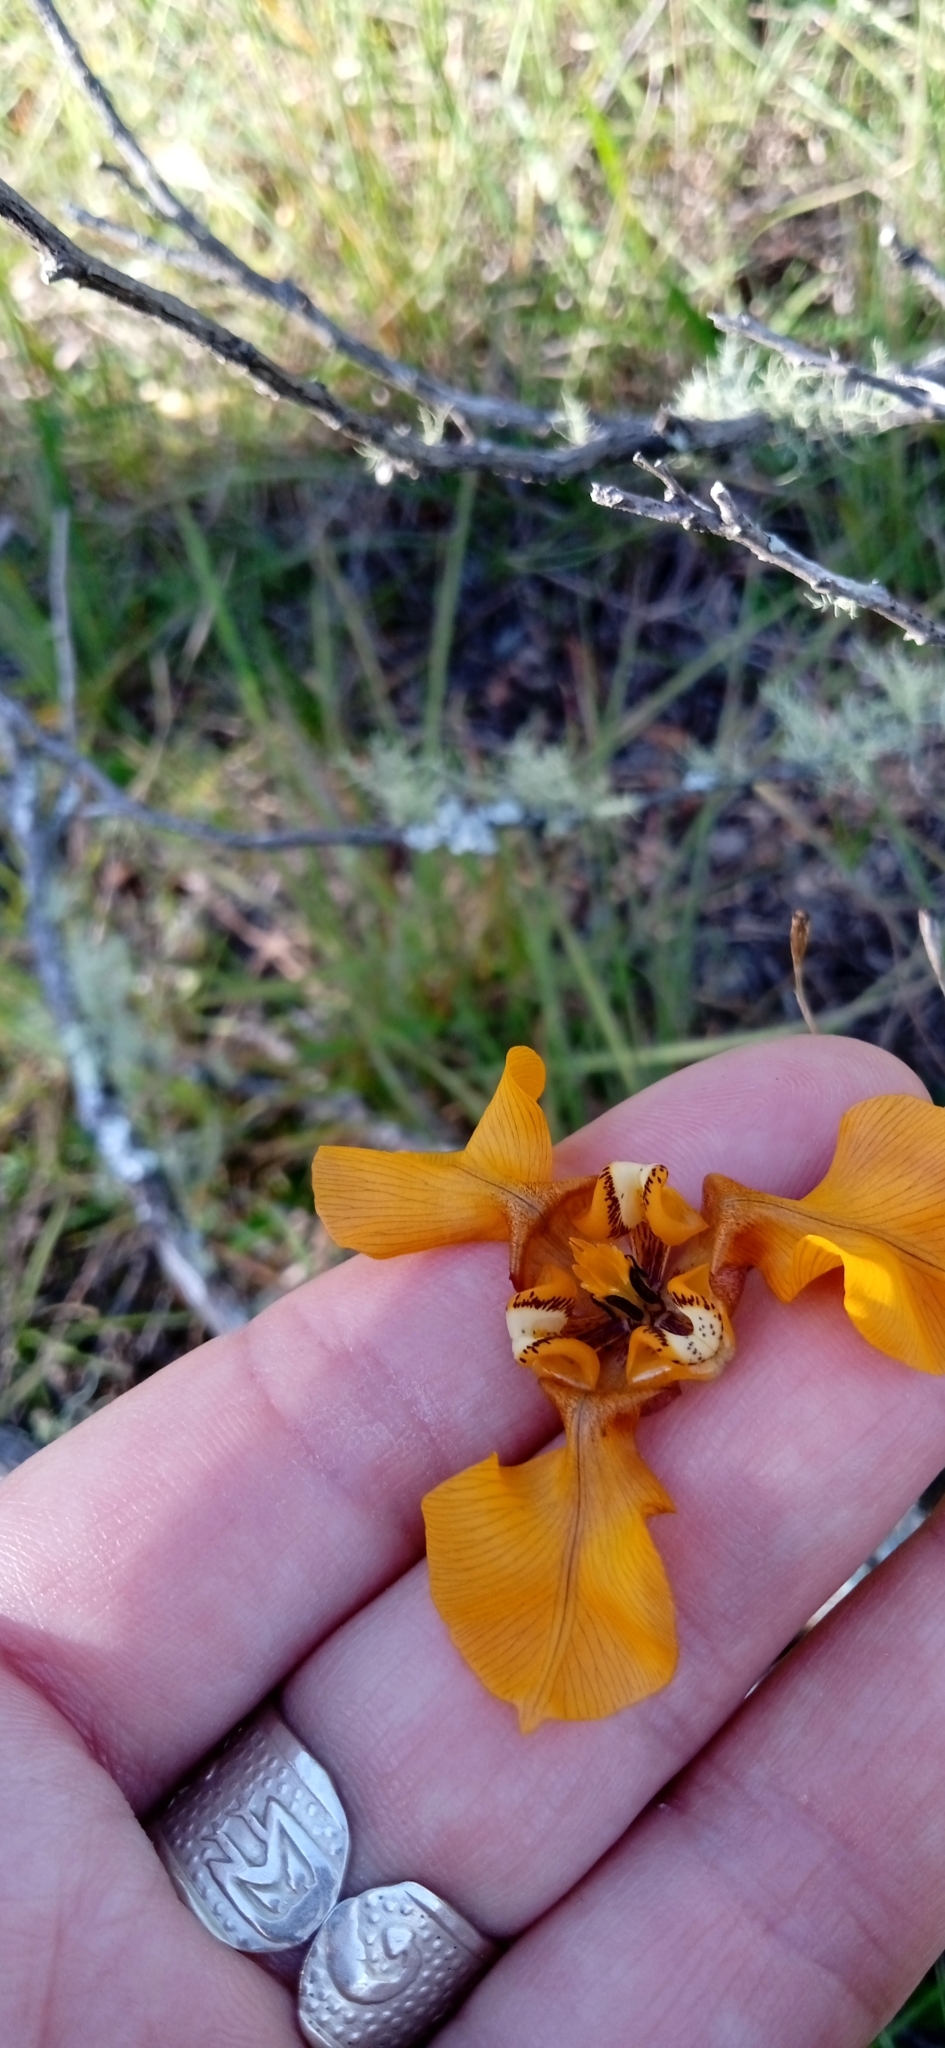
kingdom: Plantae
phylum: Tracheophyta
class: Liliopsida
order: Asparagales
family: Iridaceae
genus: Cypella
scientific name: Cypella fucata
